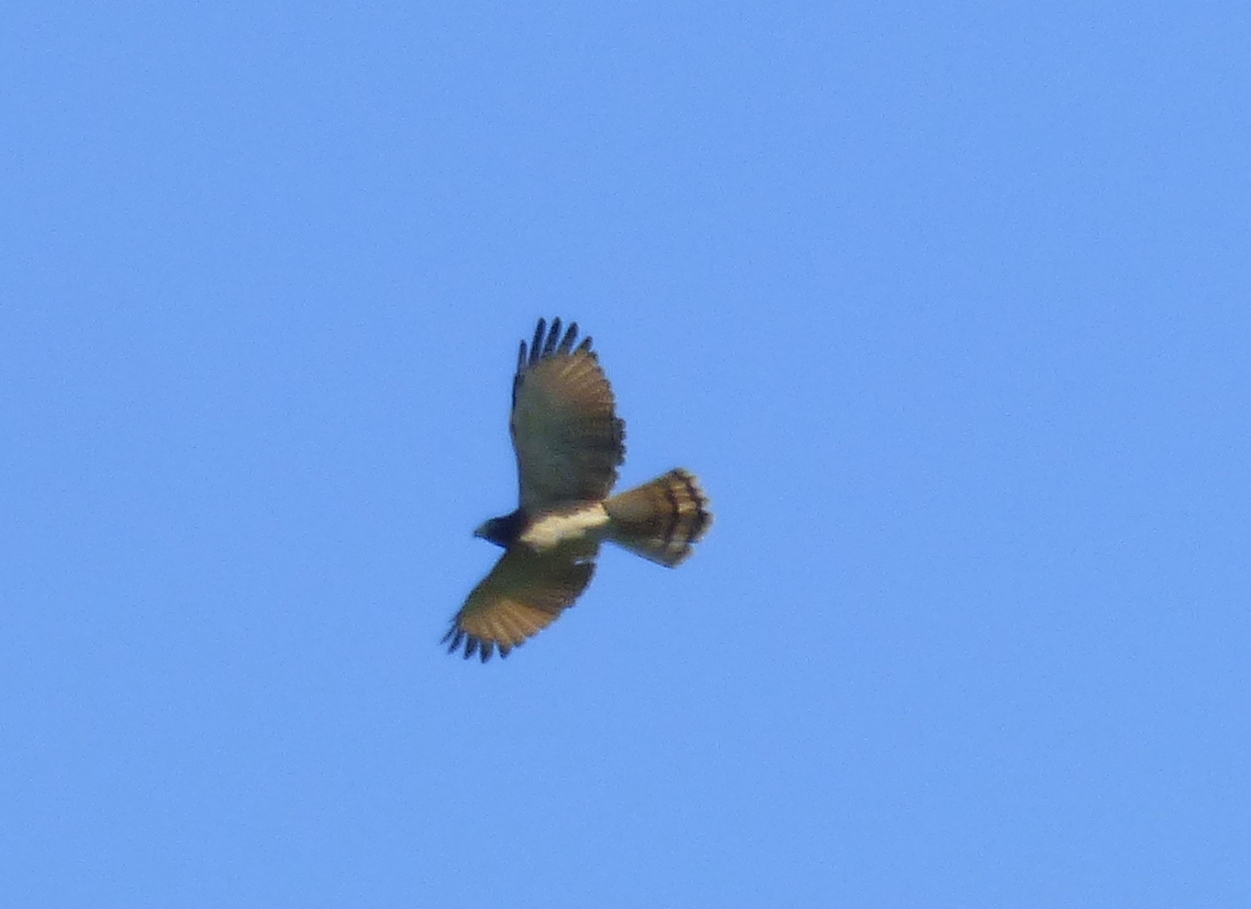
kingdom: Animalia
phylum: Chordata
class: Aves
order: Accipitriformes
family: Accipitridae
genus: Rupornis
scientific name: Rupornis magnirostris
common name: Roadside hawk
